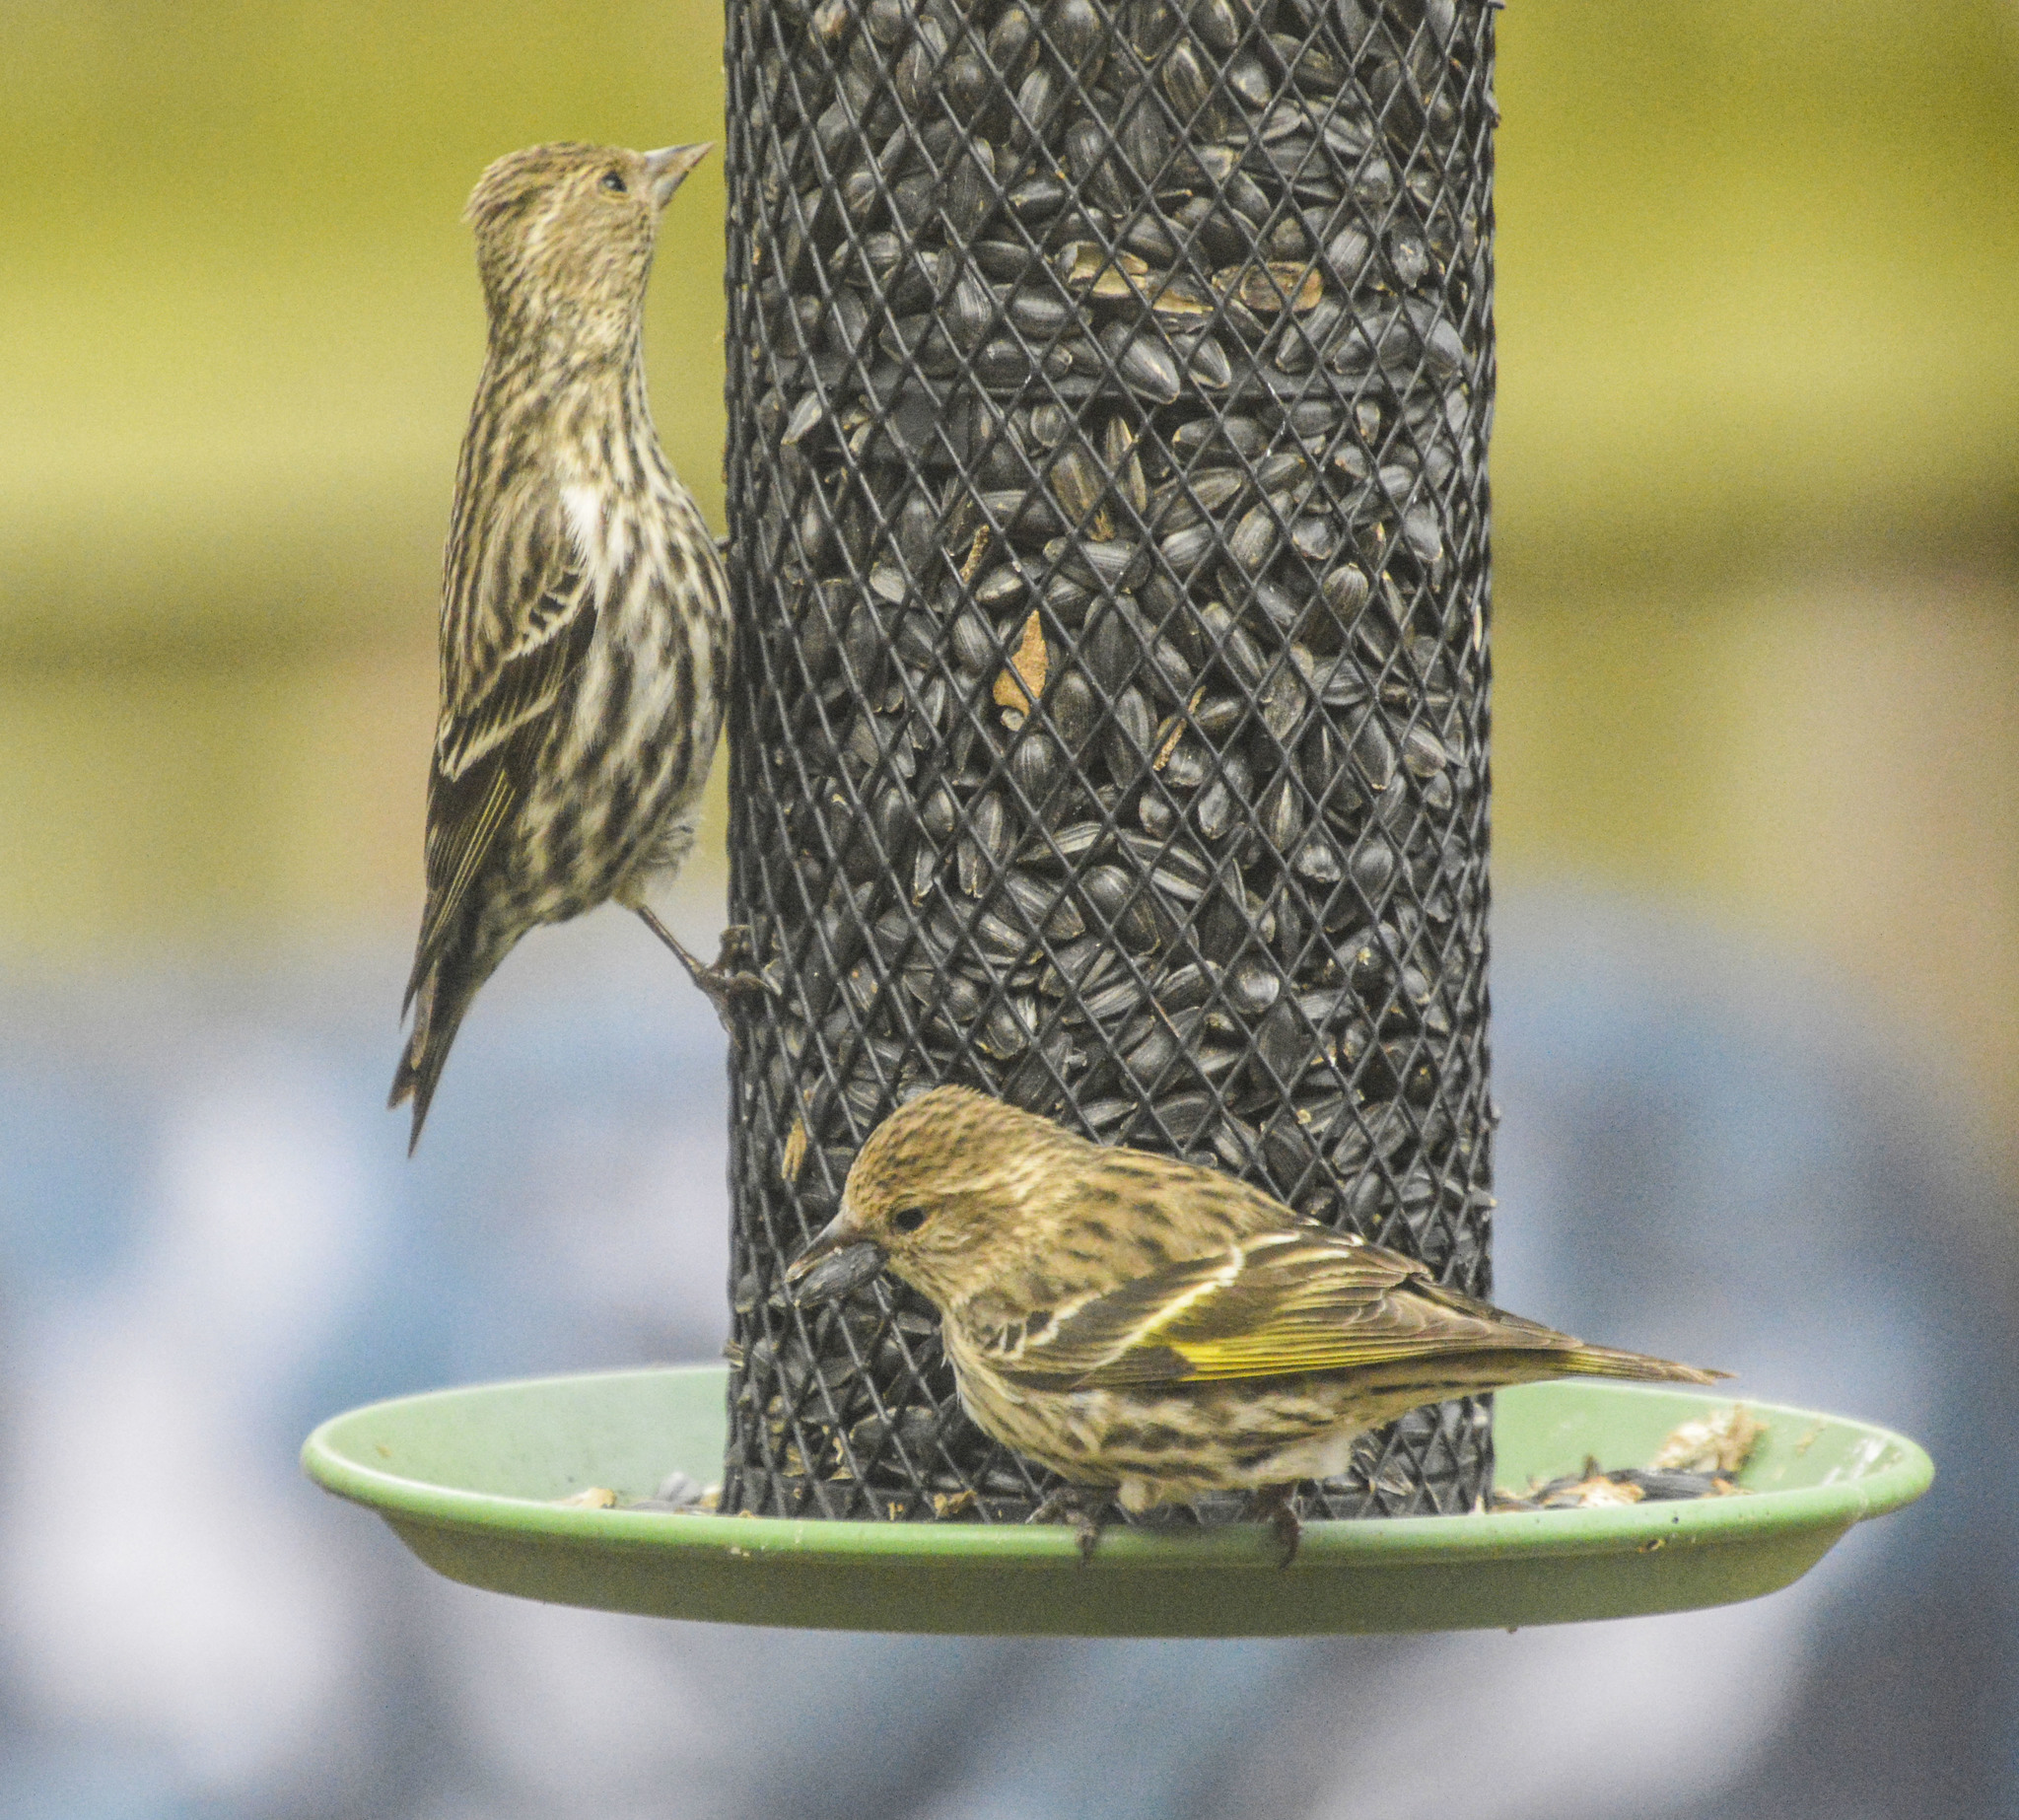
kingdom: Animalia
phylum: Chordata
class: Aves
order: Passeriformes
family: Fringillidae
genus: Spinus
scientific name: Spinus pinus
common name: Pine siskin
